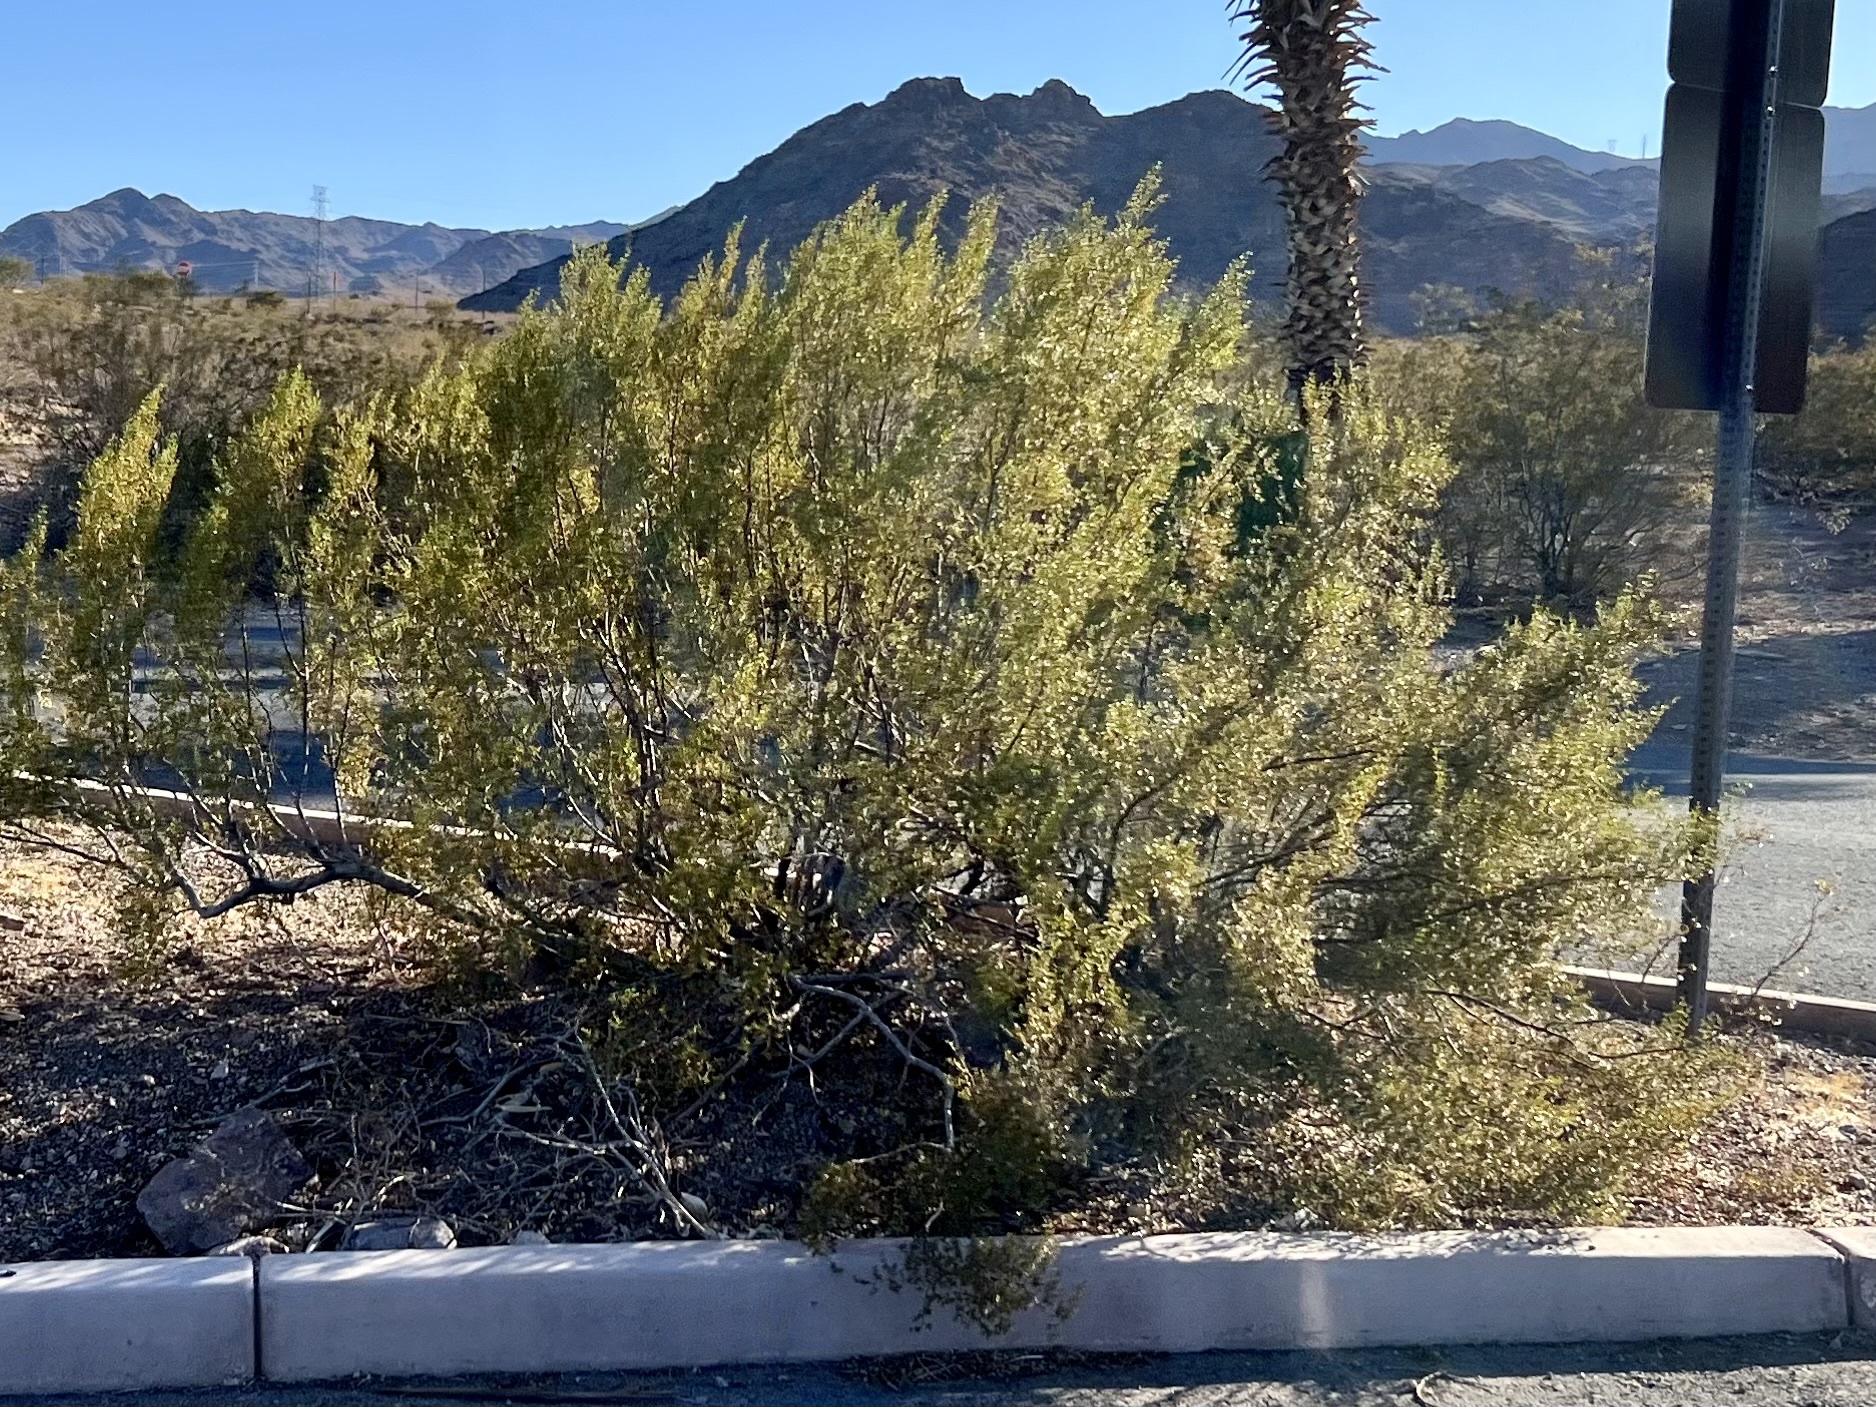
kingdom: Plantae
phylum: Tracheophyta
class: Magnoliopsida
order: Zygophyllales
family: Zygophyllaceae
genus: Larrea
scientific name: Larrea tridentata
